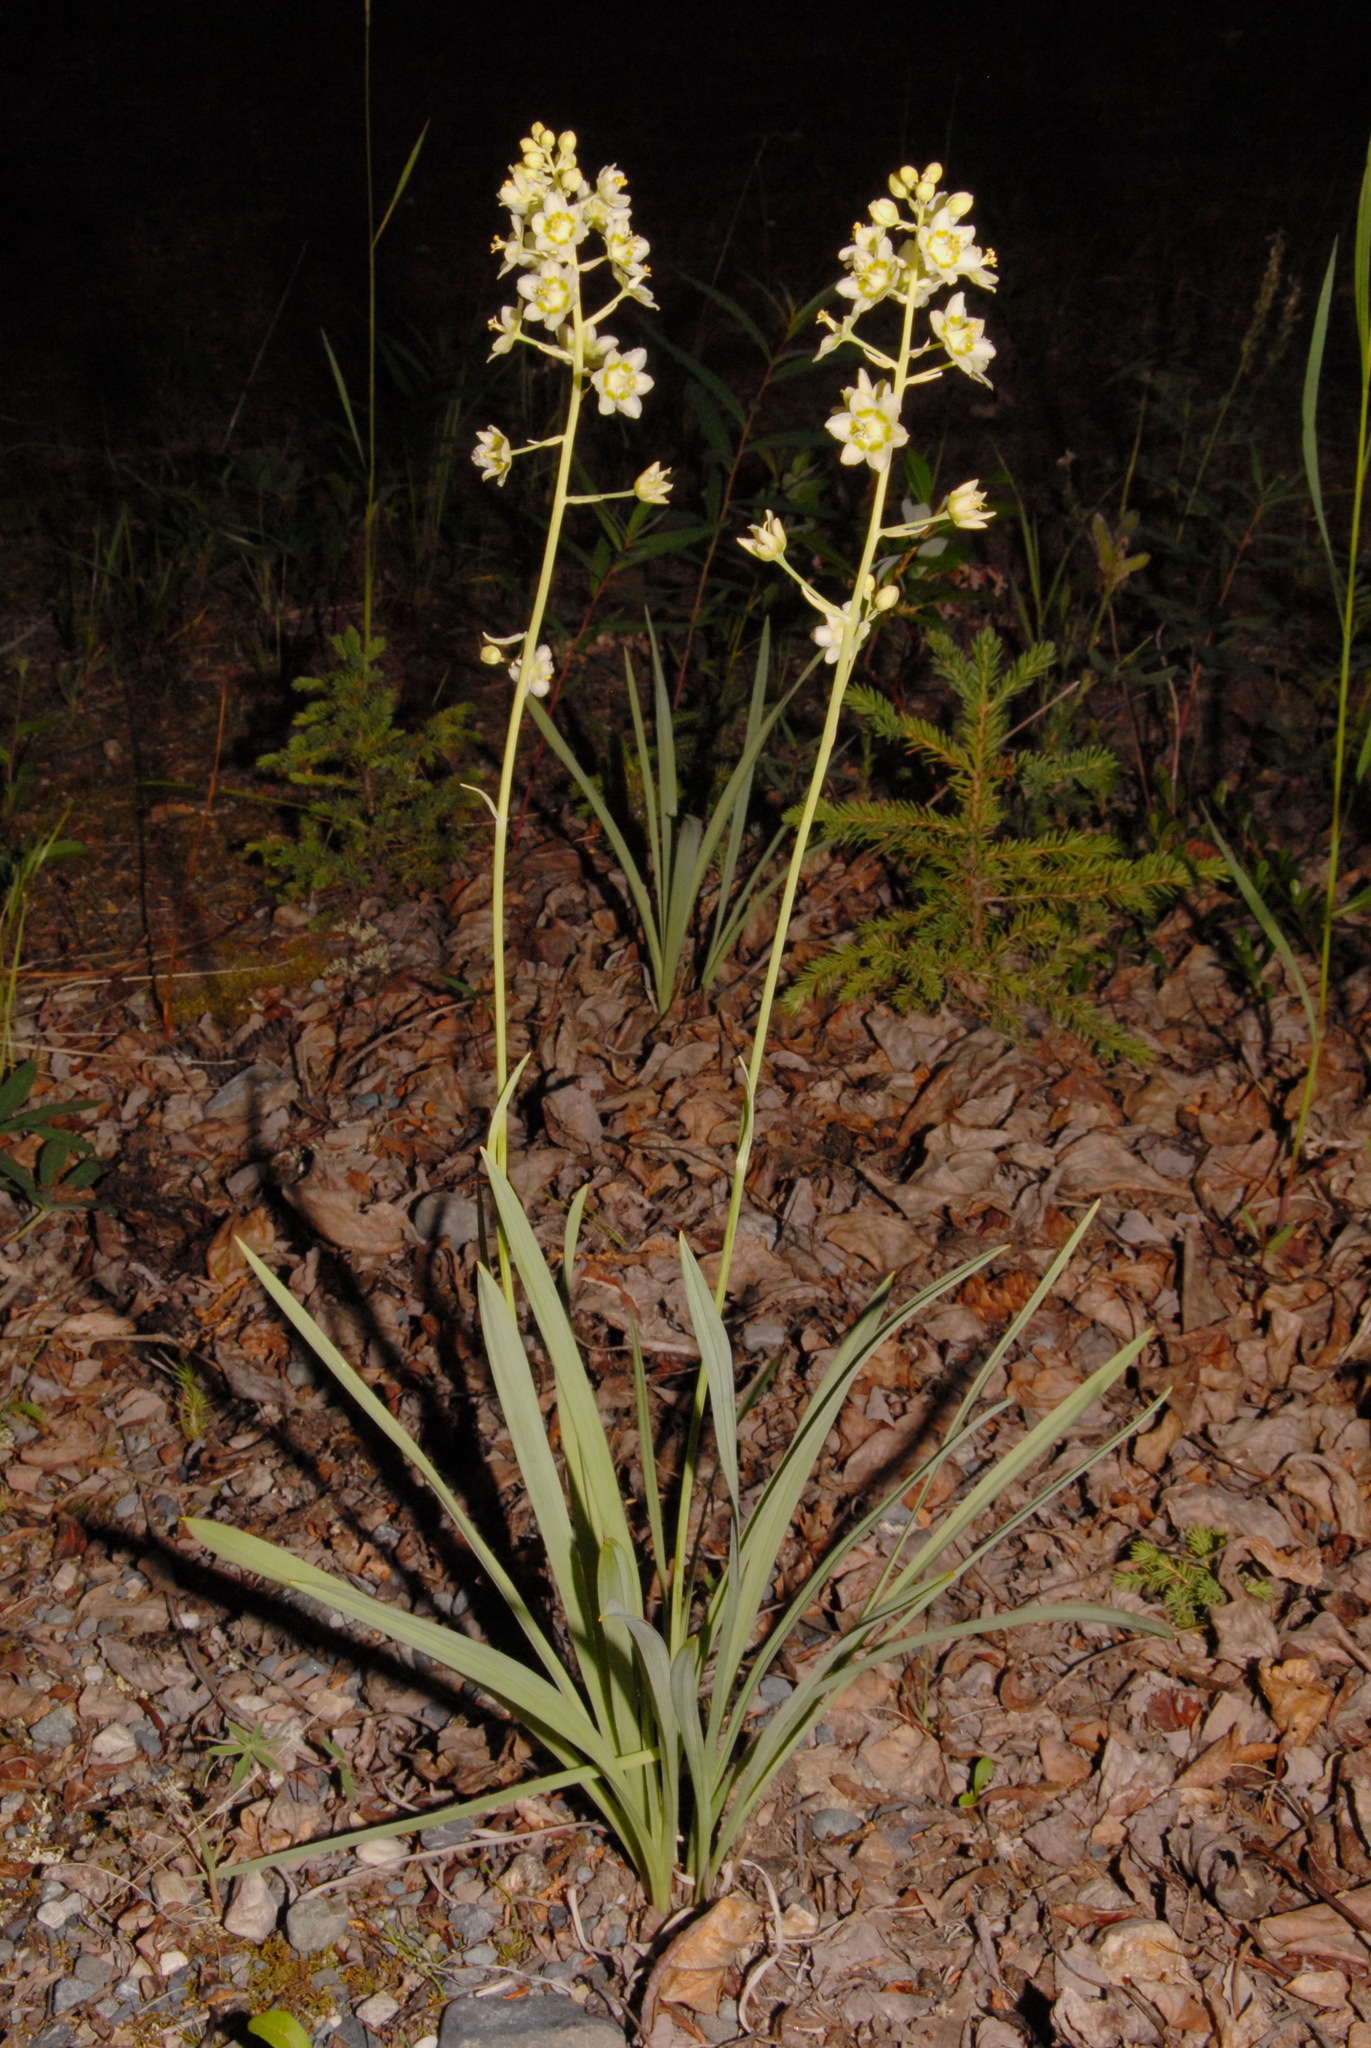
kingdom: Plantae
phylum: Tracheophyta
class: Liliopsida
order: Liliales
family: Melanthiaceae
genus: Anticlea
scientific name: Anticlea elegans
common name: Mountain death camas
